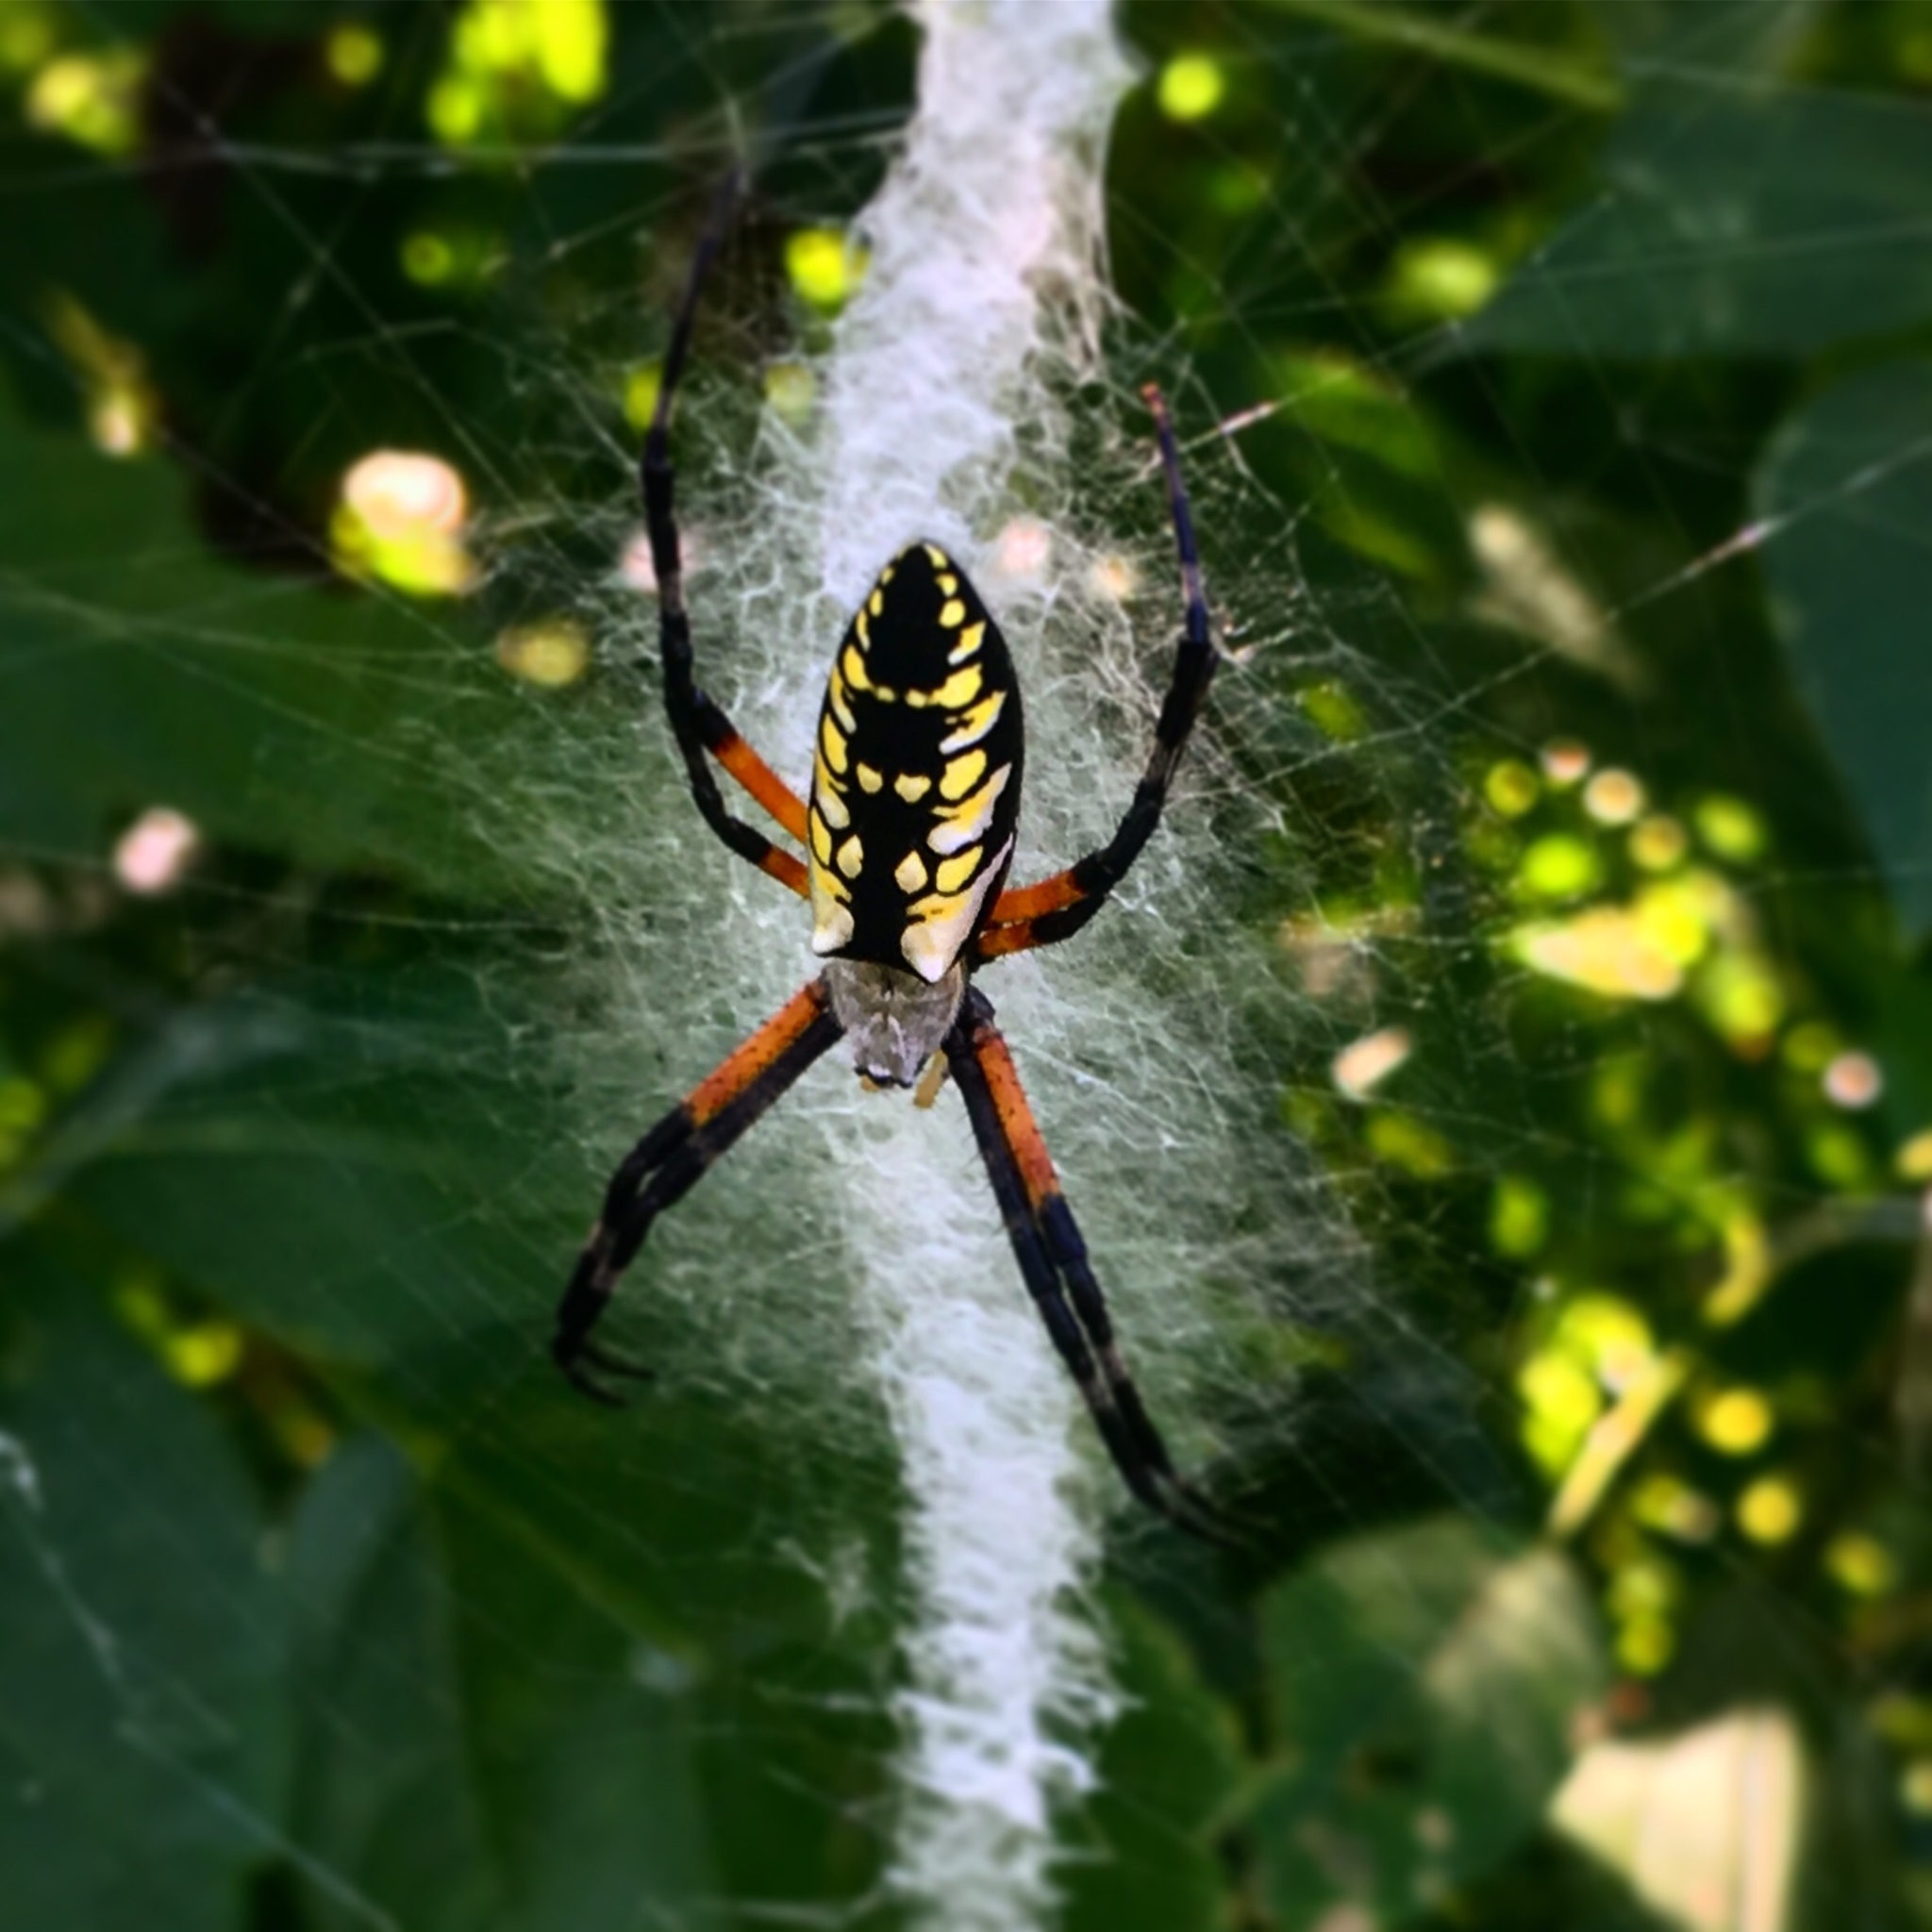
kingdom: Animalia
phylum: Arthropoda
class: Arachnida
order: Araneae
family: Araneidae
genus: Argiope
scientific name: Argiope aurantia
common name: Orb weavers
